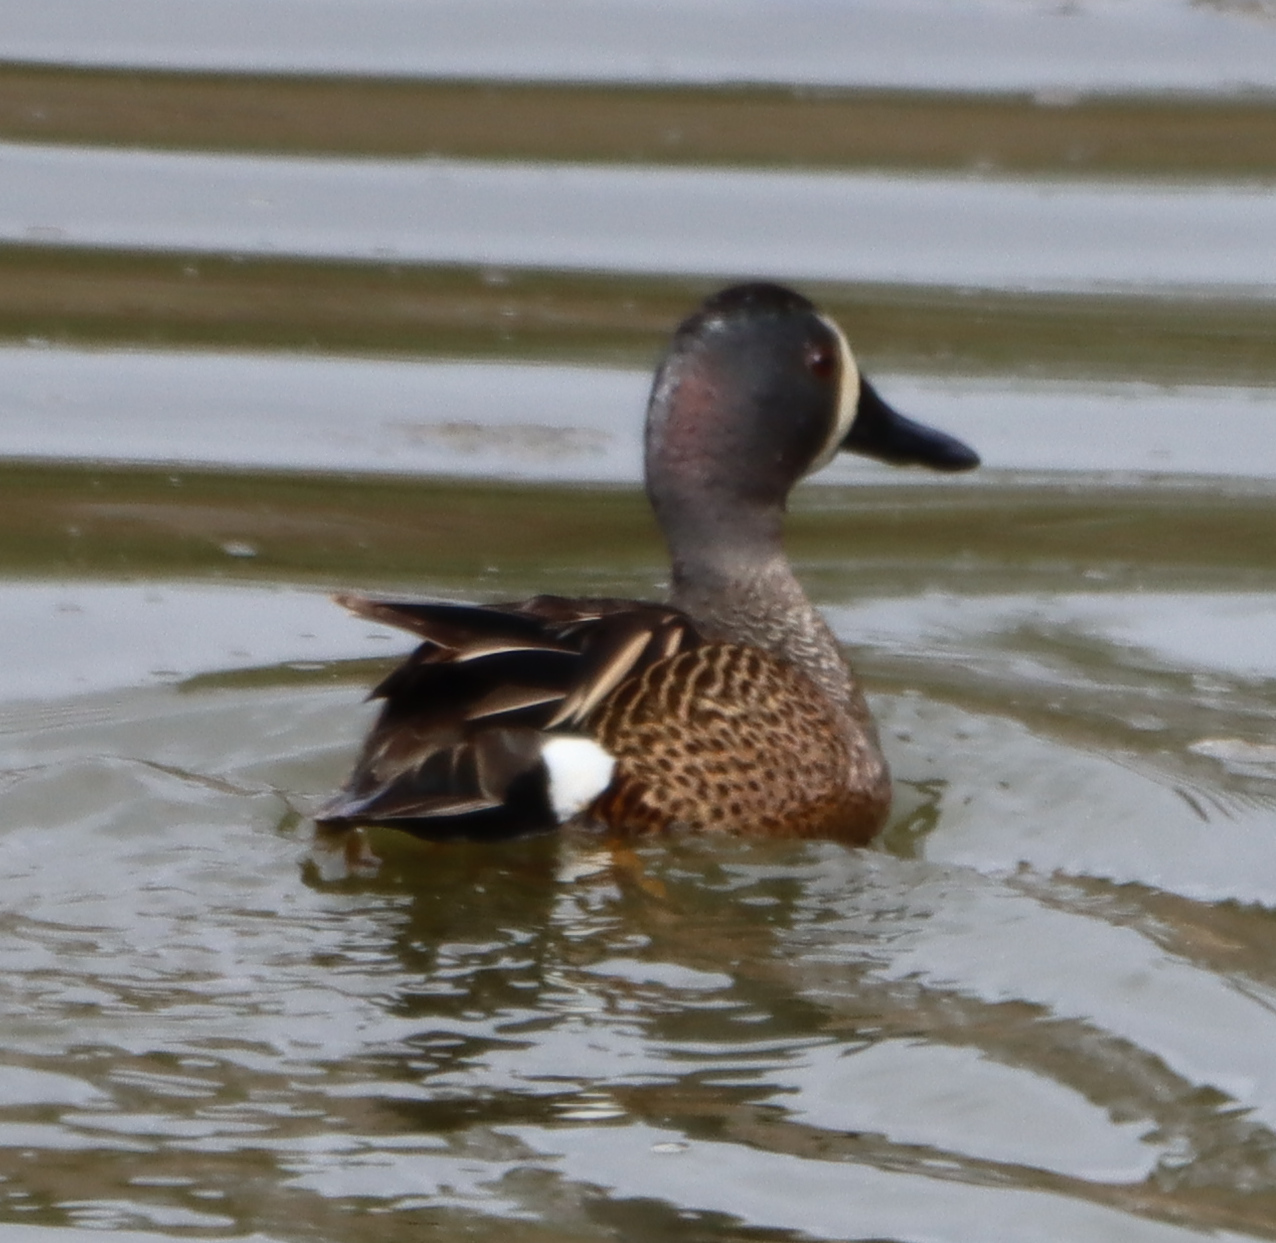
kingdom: Animalia
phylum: Chordata
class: Aves
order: Anseriformes
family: Anatidae
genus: Spatula
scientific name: Spatula discors
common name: Blue-winged teal
